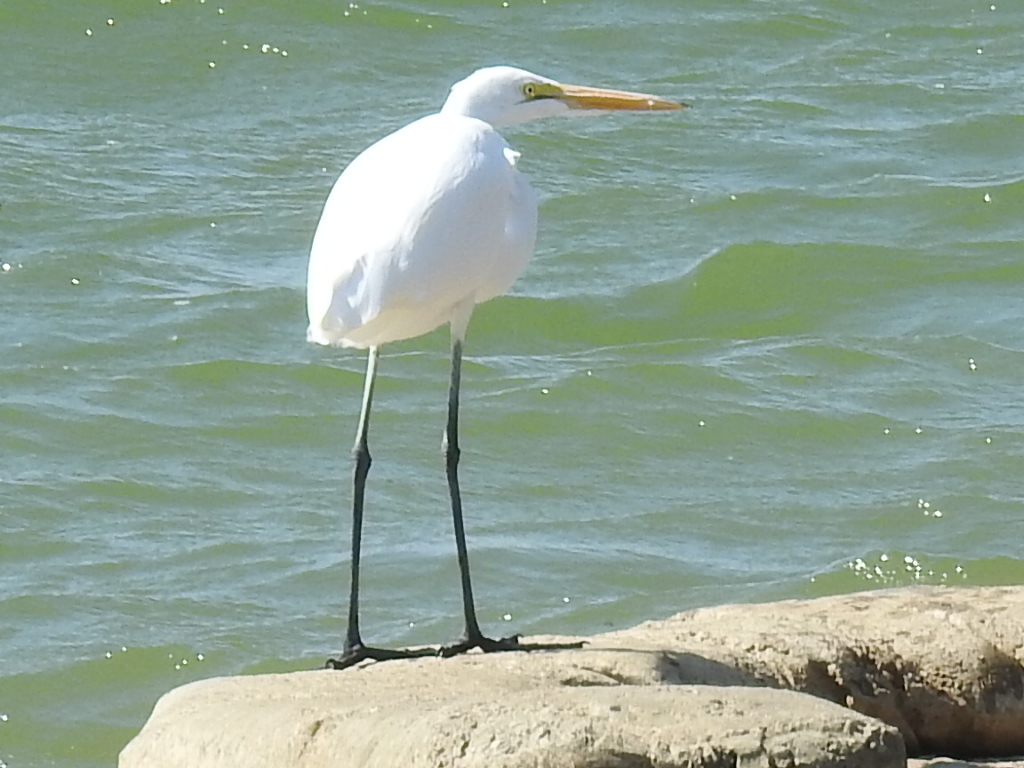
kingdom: Animalia
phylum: Chordata
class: Aves
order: Pelecaniformes
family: Ardeidae
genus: Ardea
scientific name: Ardea alba
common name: Great egret
